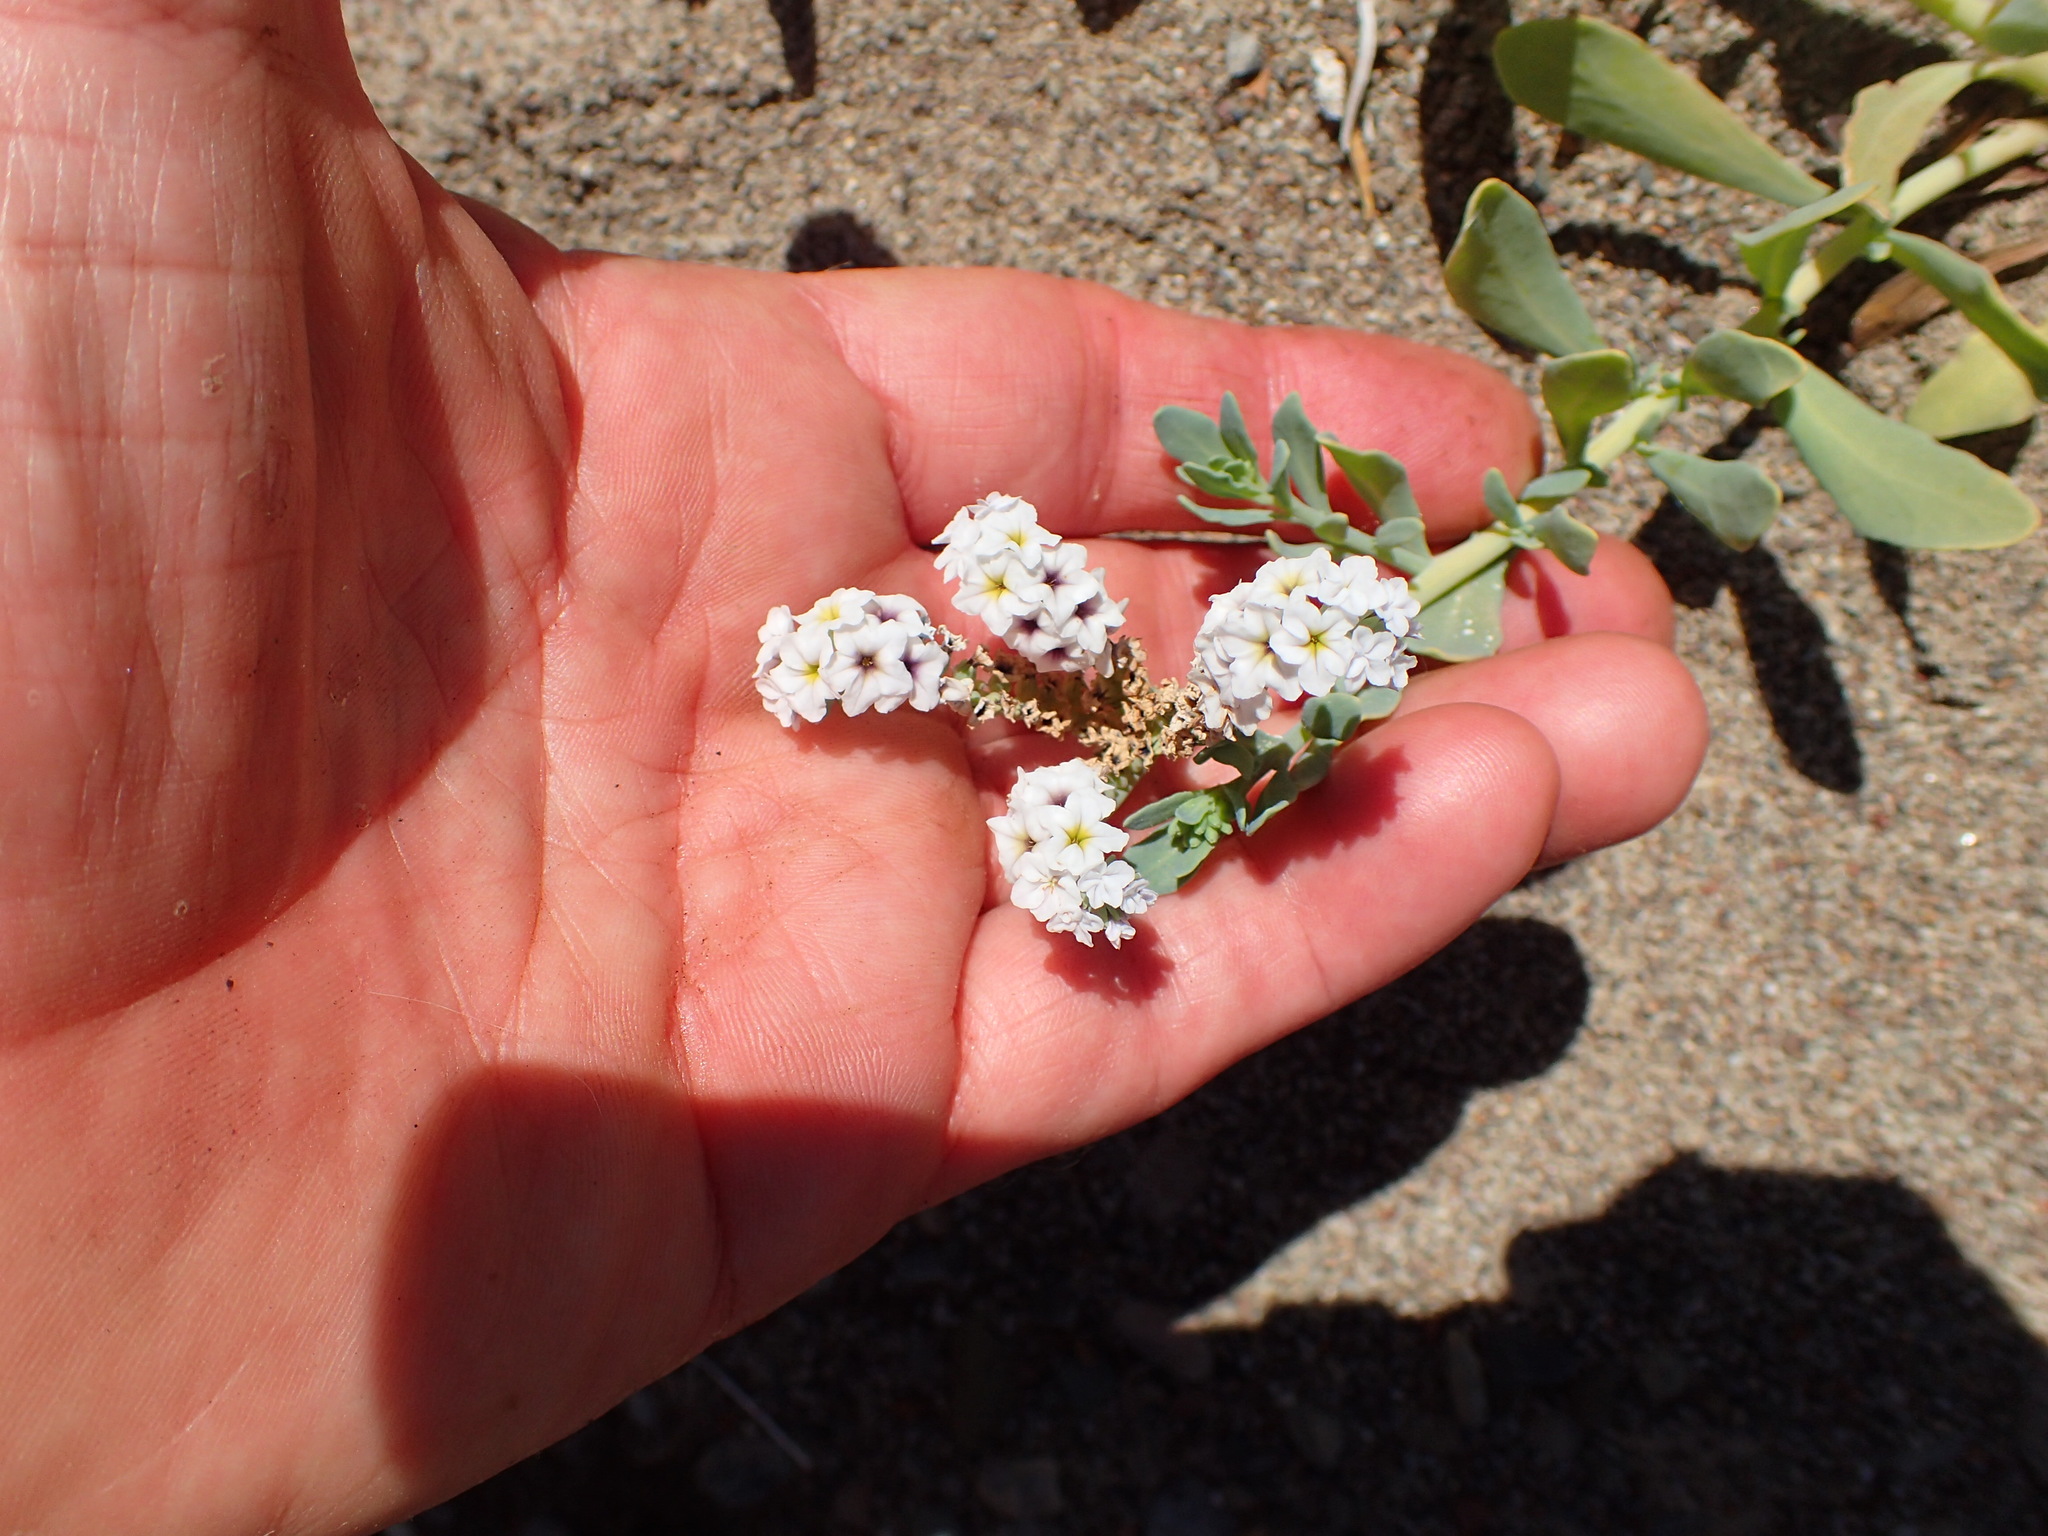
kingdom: Plantae
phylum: Tracheophyta
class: Magnoliopsida
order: Boraginales
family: Heliotropiaceae
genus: Heliotropium
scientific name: Heliotropium curassavicum
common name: Seaside heliotrope
